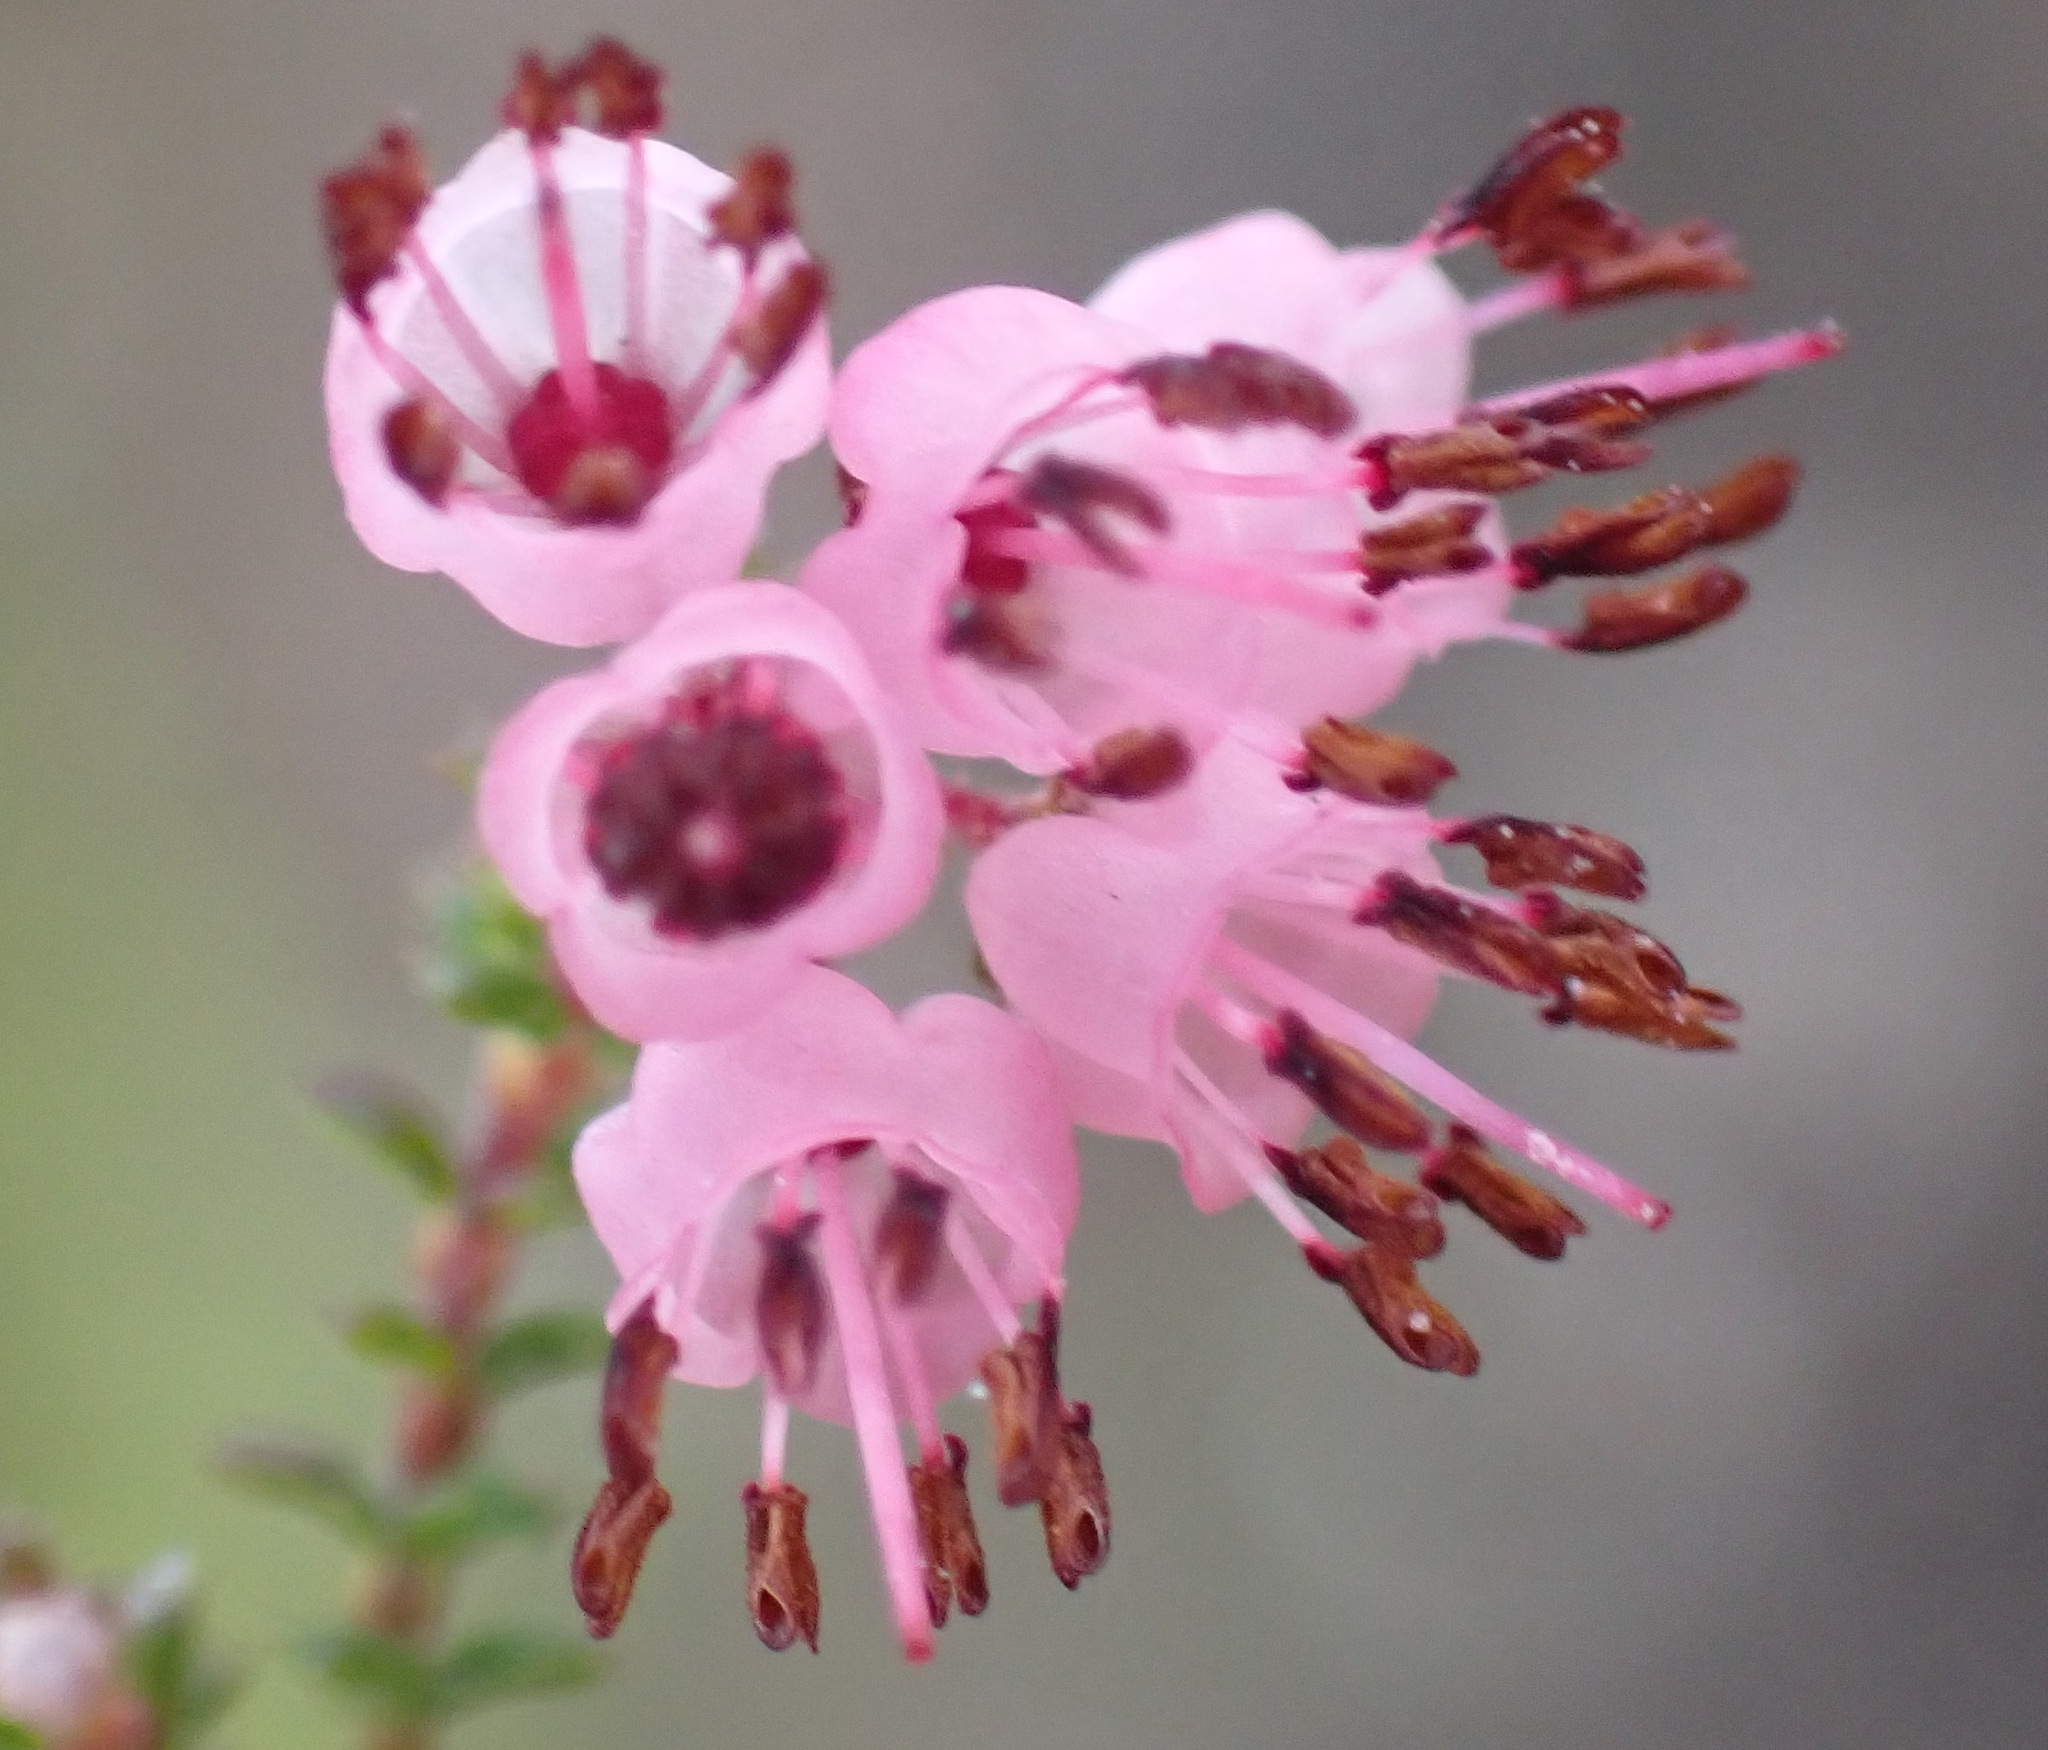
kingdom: Plantae
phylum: Tracheophyta
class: Magnoliopsida
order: Ericales
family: Ericaceae
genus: Erica
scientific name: Erica brachycentra
